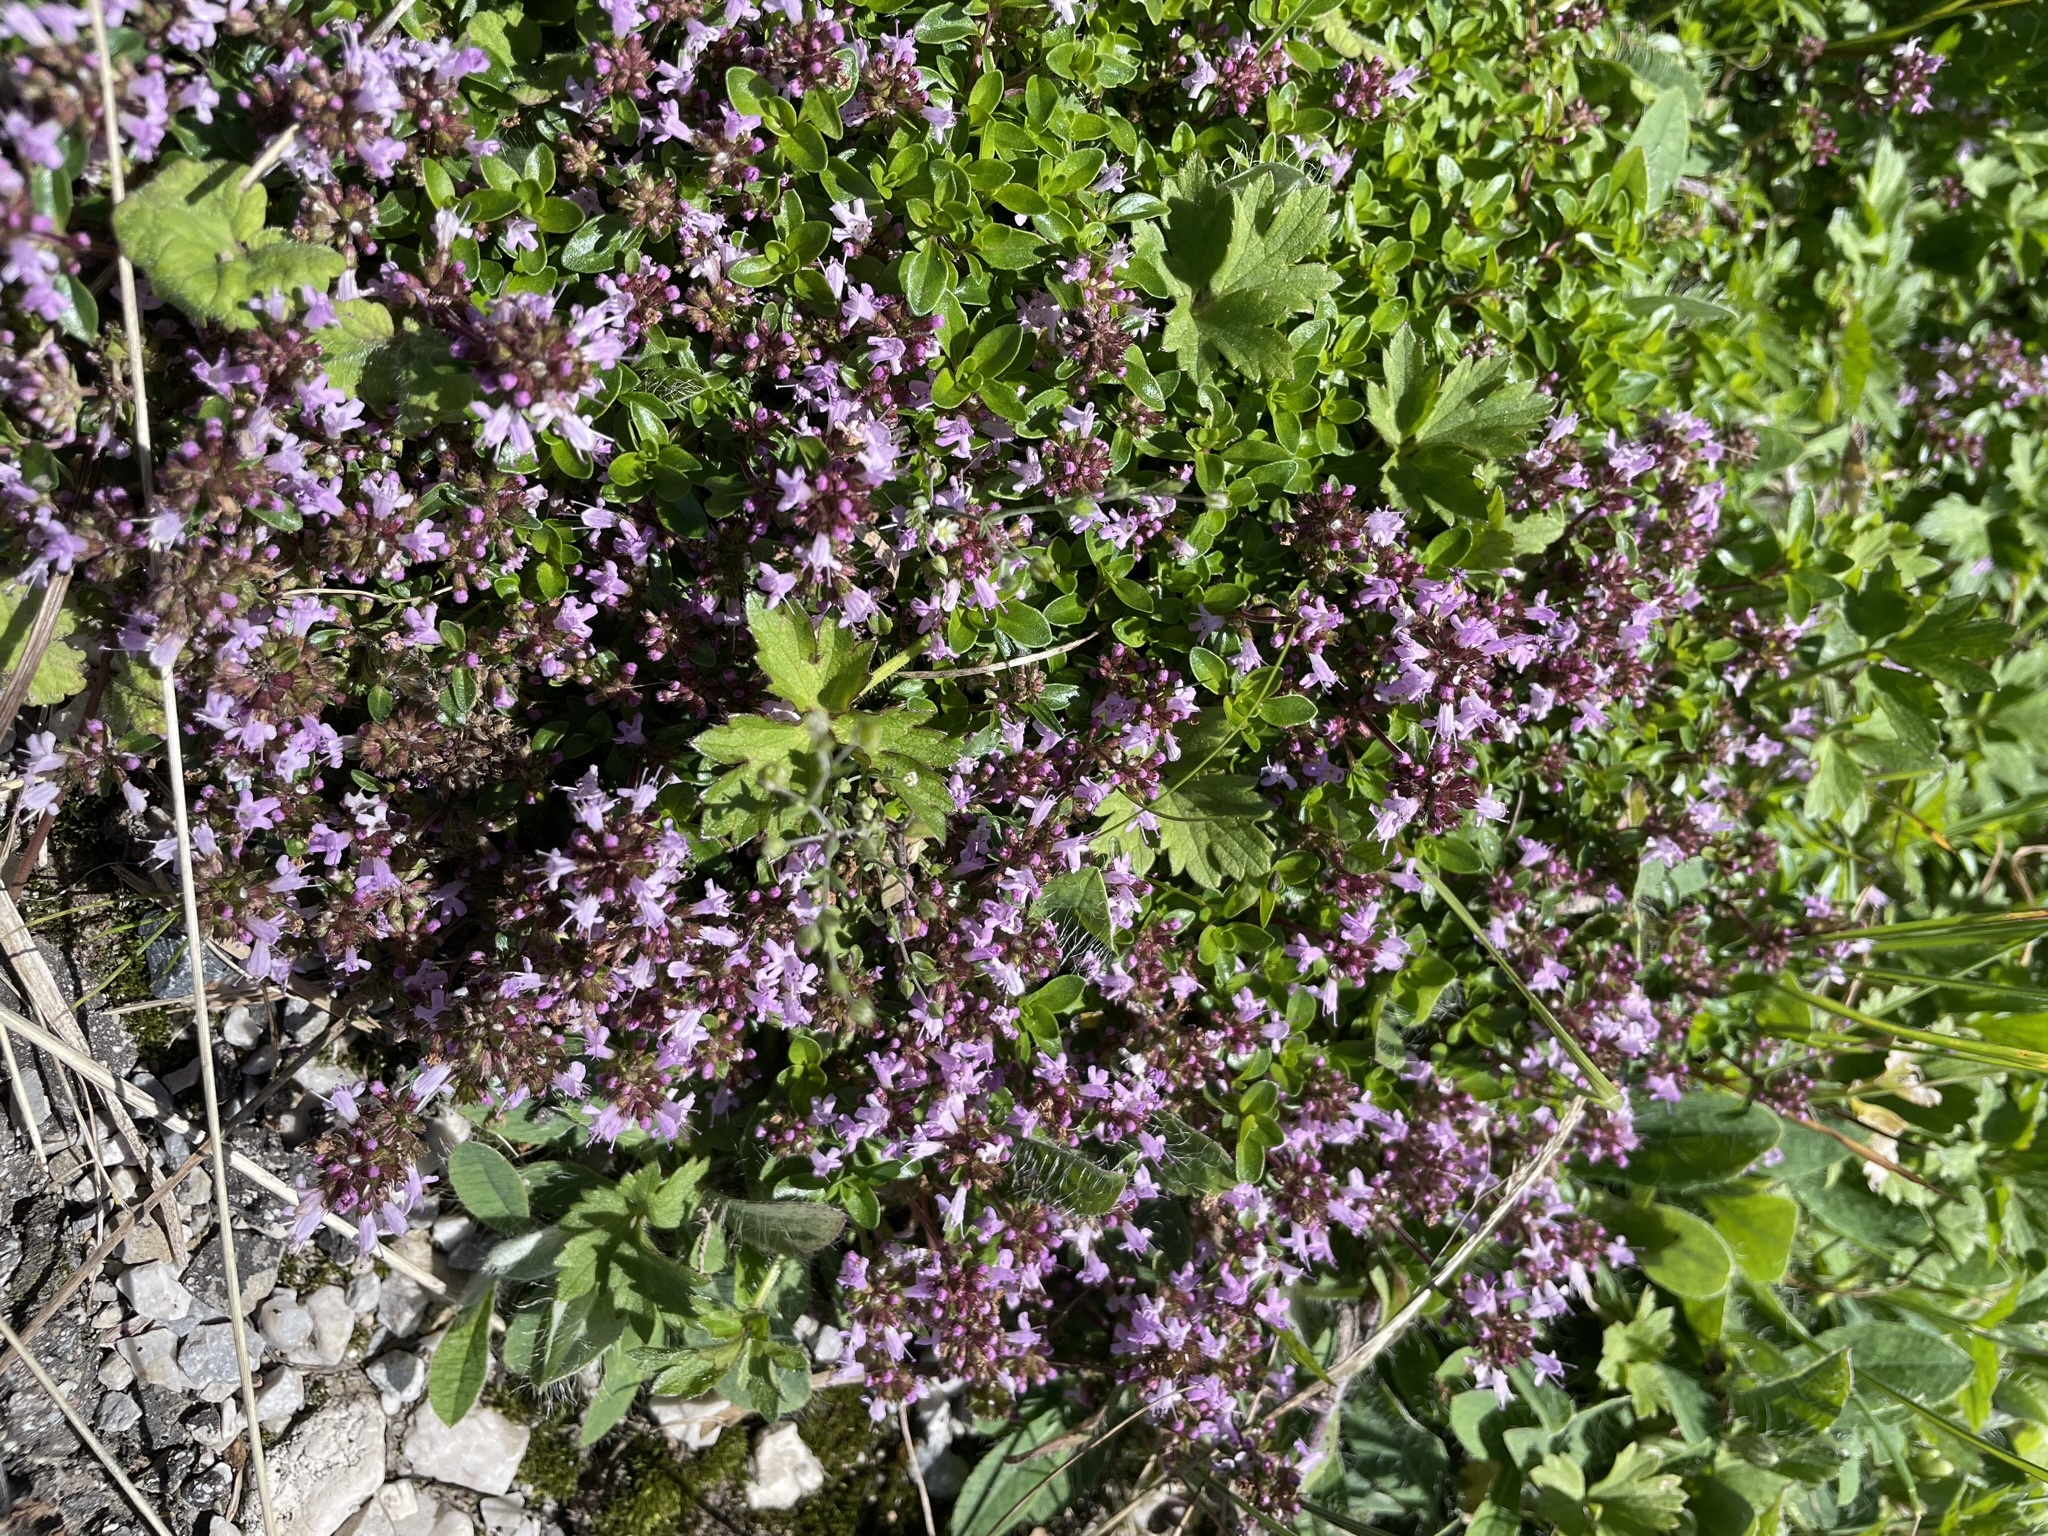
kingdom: Plantae
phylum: Tracheophyta
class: Magnoliopsida
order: Lamiales
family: Lamiaceae
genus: Thymus
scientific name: Thymus pulegioides
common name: Large thyme
